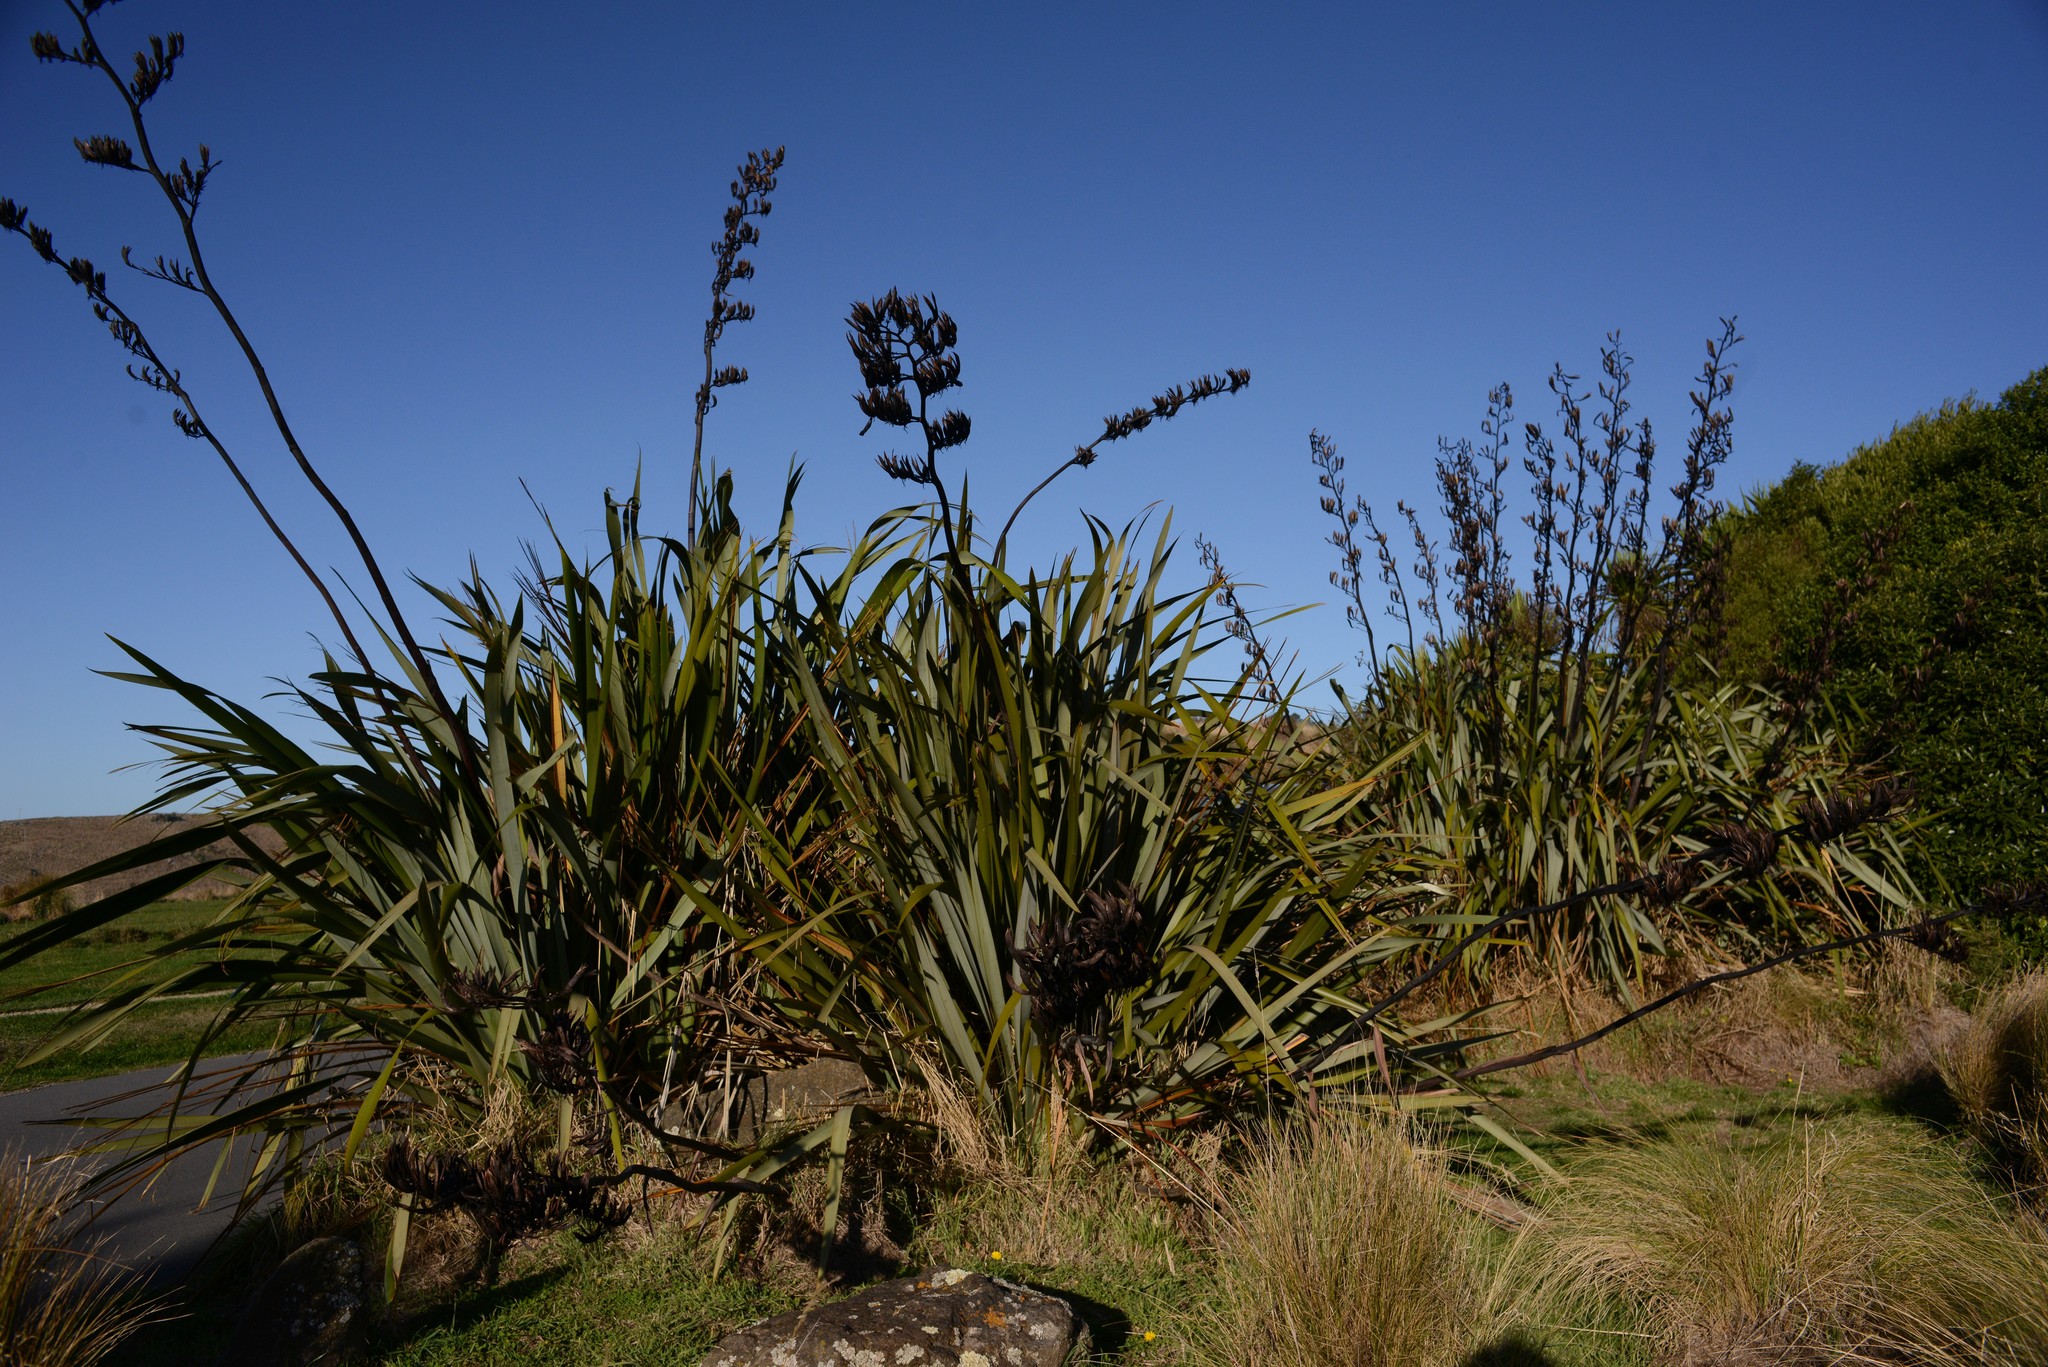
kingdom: Plantae
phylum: Tracheophyta
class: Liliopsida
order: Asparagales
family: Asphodelaceae
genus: Phormium
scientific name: Phormium tenax
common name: New zealand flax
